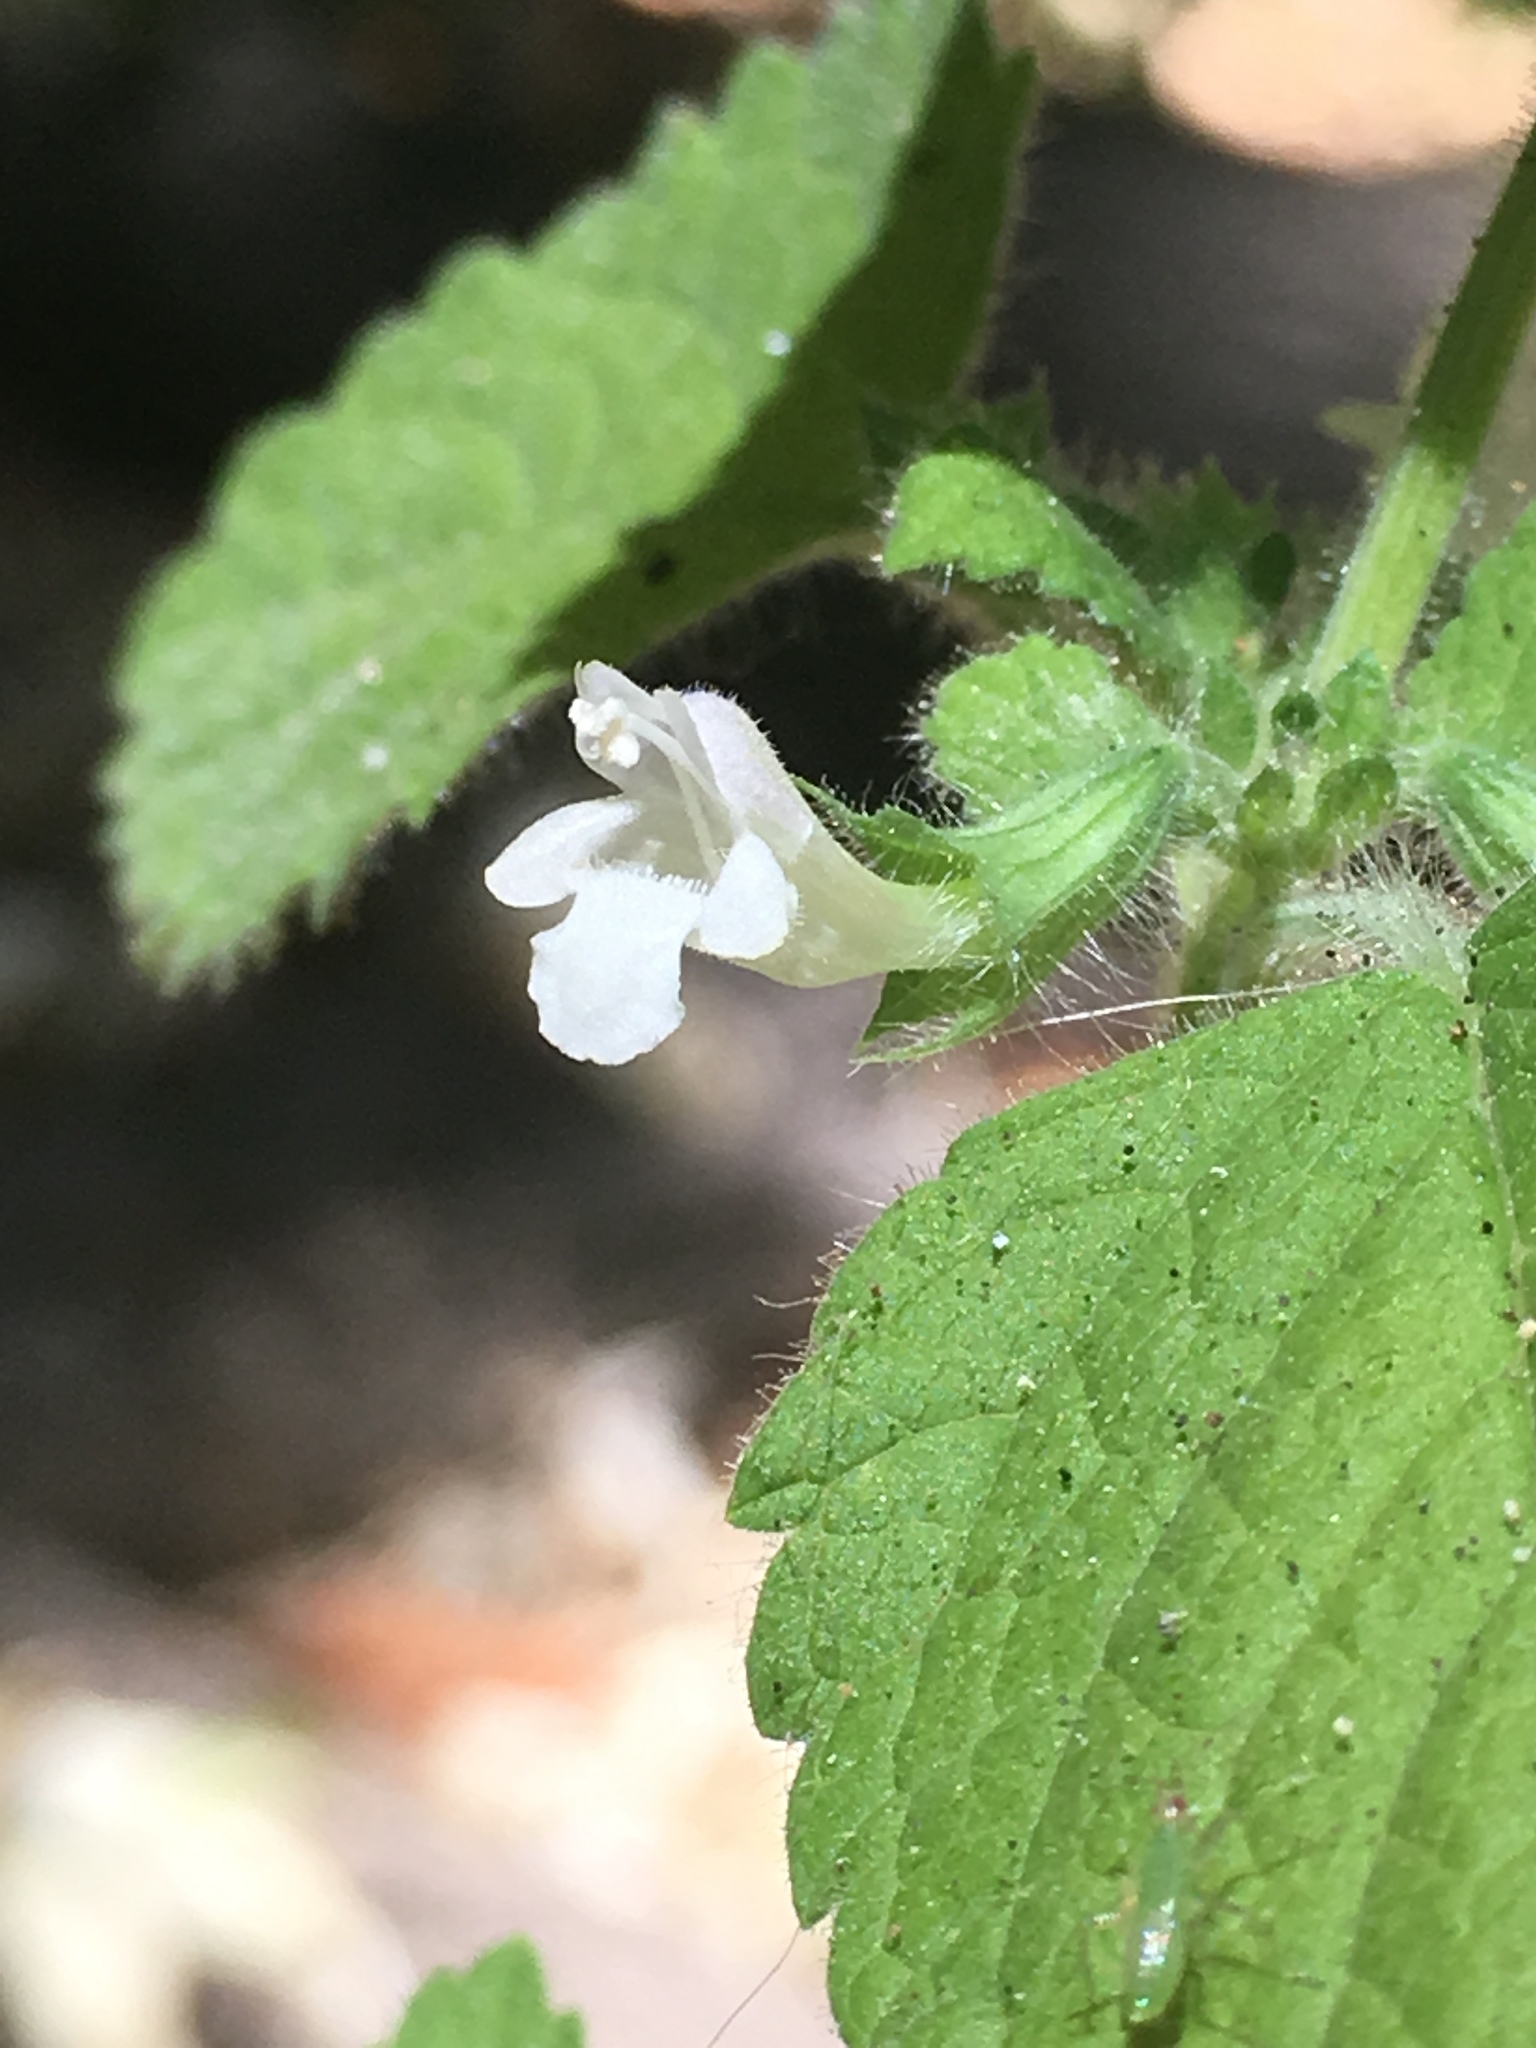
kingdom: Plantae
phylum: Tracheophyta
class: Magnoliopsida
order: Lamiales
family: Lamiaceae
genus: Melissa
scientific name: Melissa officinalis
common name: Balm
